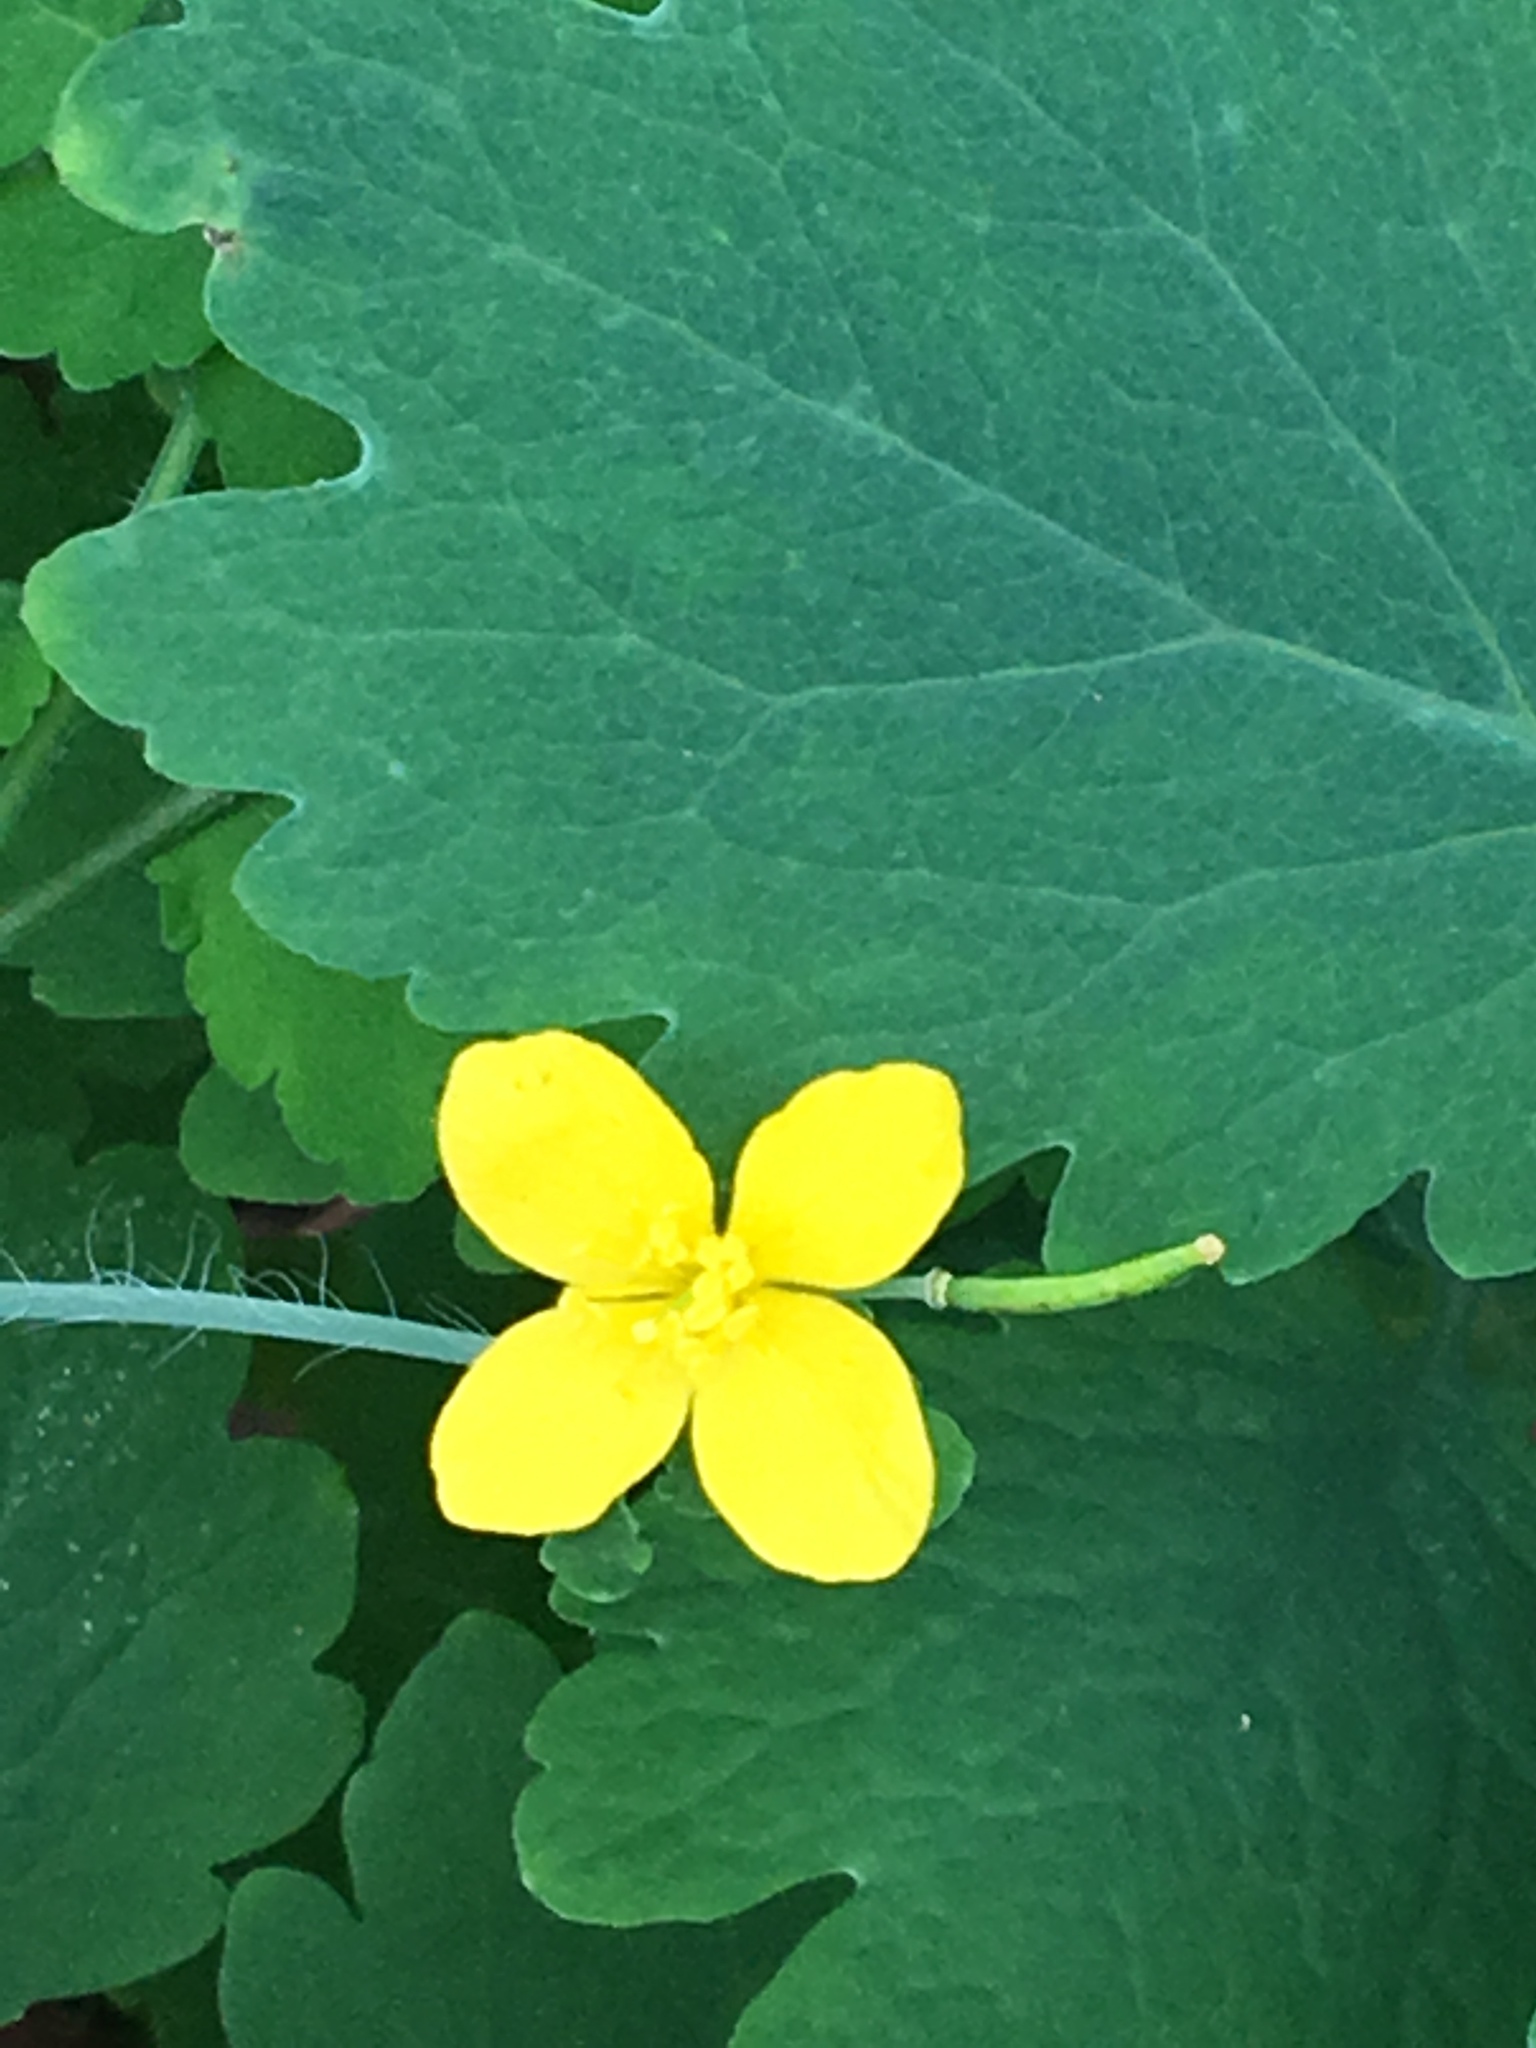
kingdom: Plantae
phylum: Tracheophyta
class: Magnoliopsida
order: Ranunculales
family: Papaveraceae
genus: Chelidonium
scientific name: Chelidonium majus
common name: Greater celandine
